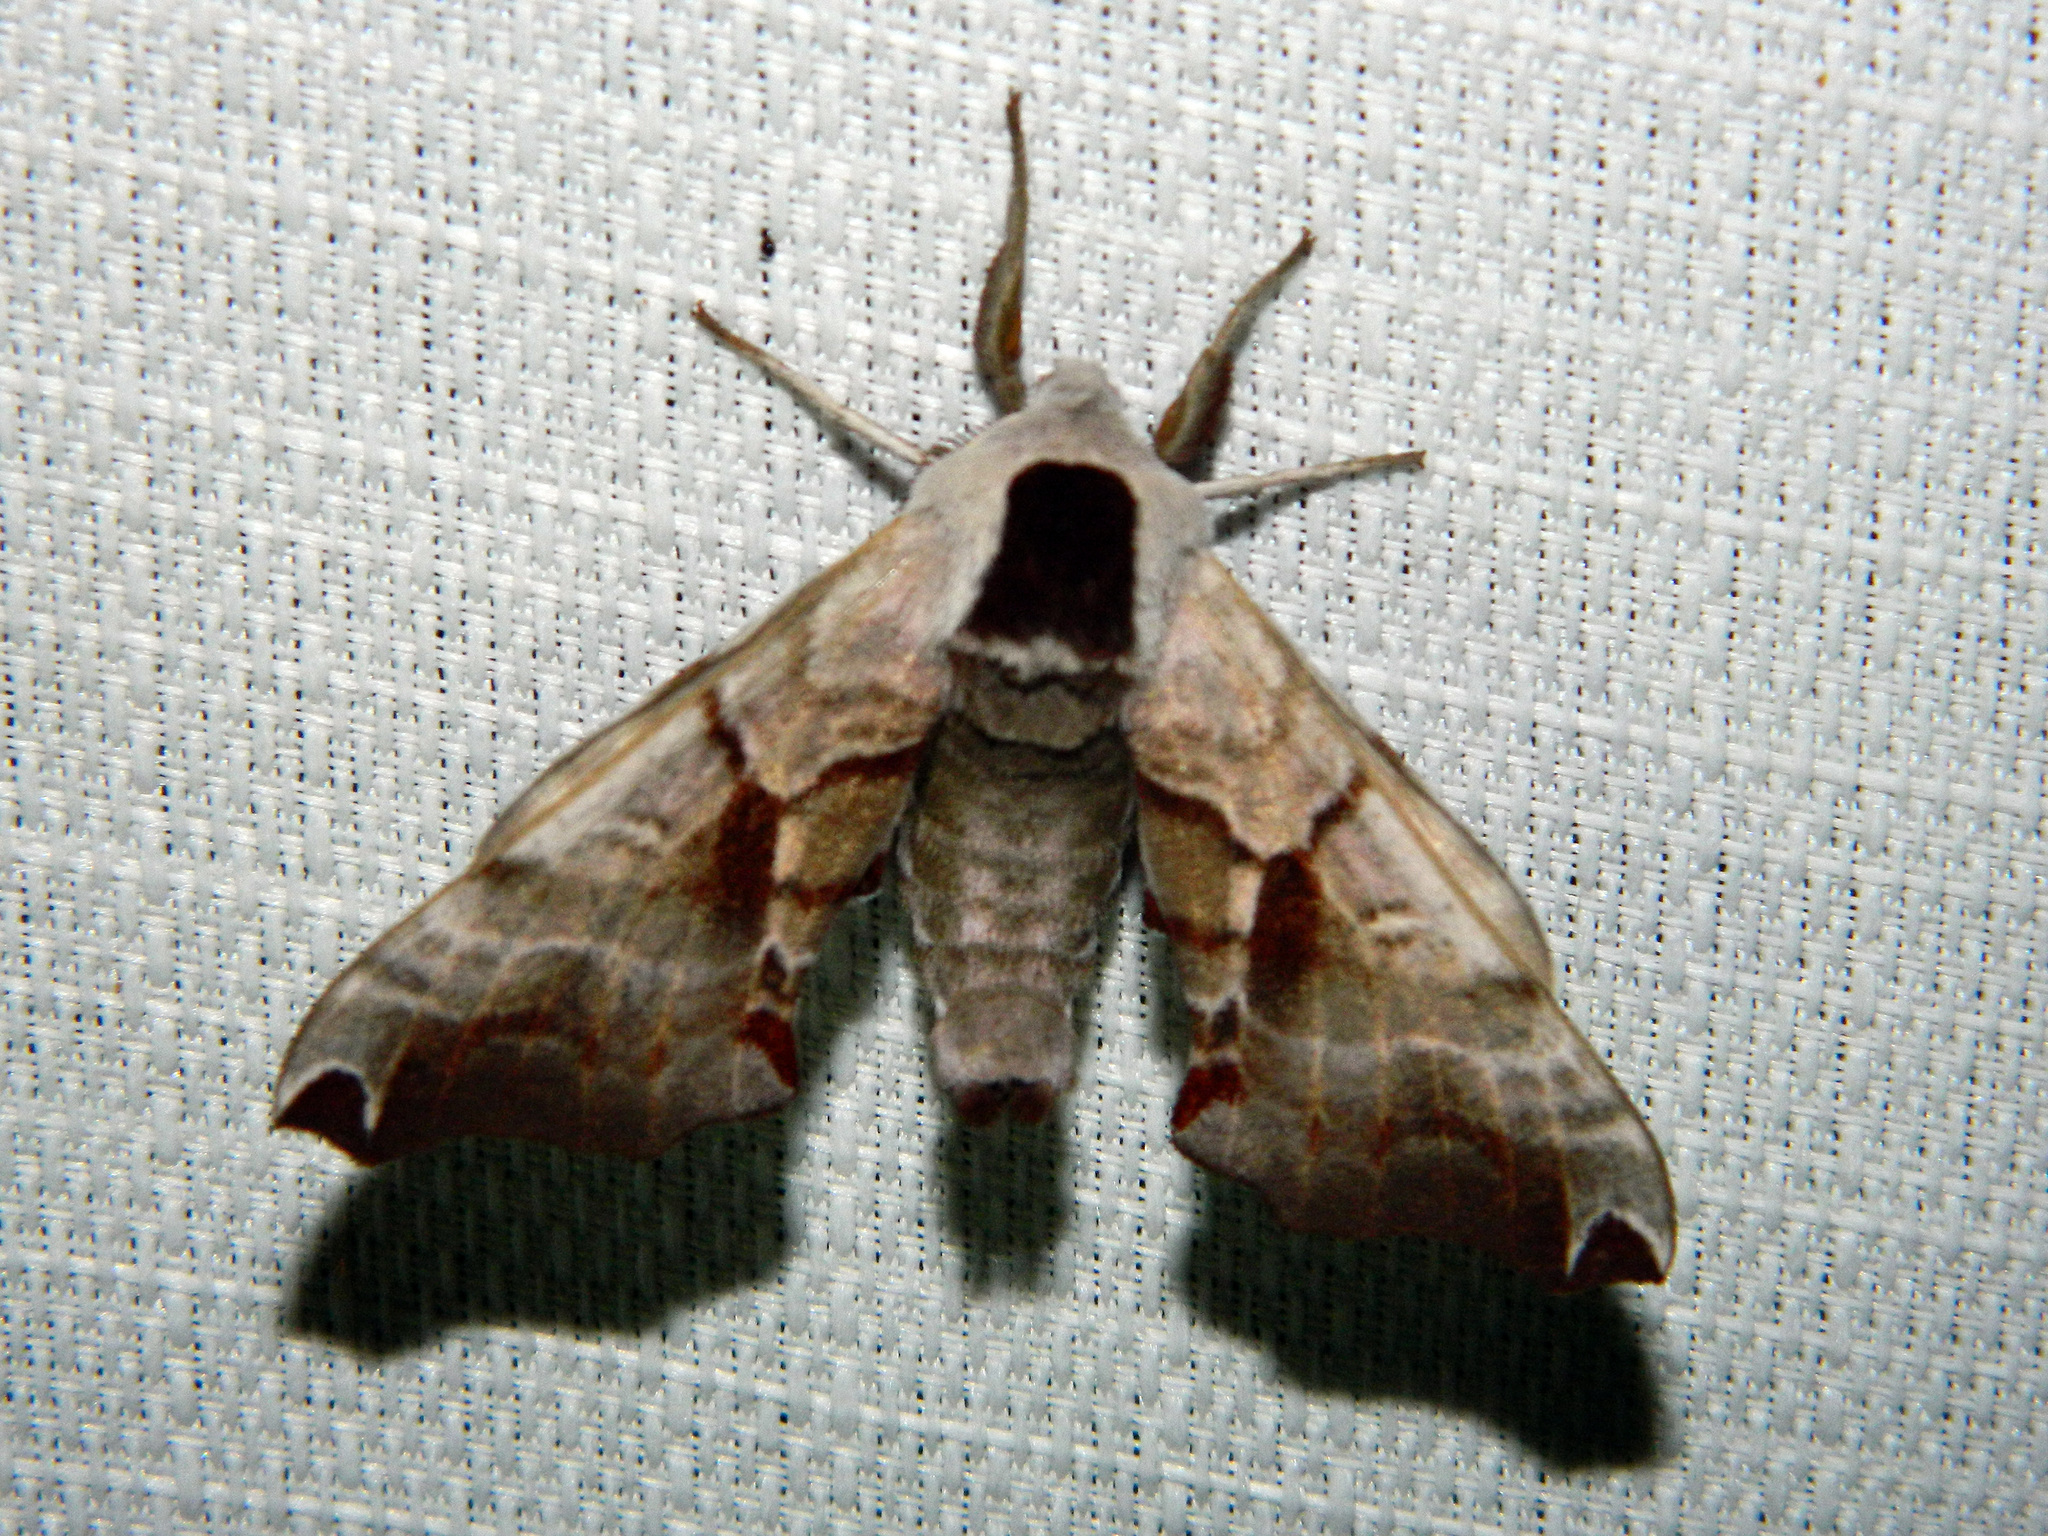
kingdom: Animalia
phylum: Arthropoda
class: Insecta
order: Lepidoptera
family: Sphingidae
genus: Smerinthus
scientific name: Smerinthus jamaicensis
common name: Twin spotted sphinx
